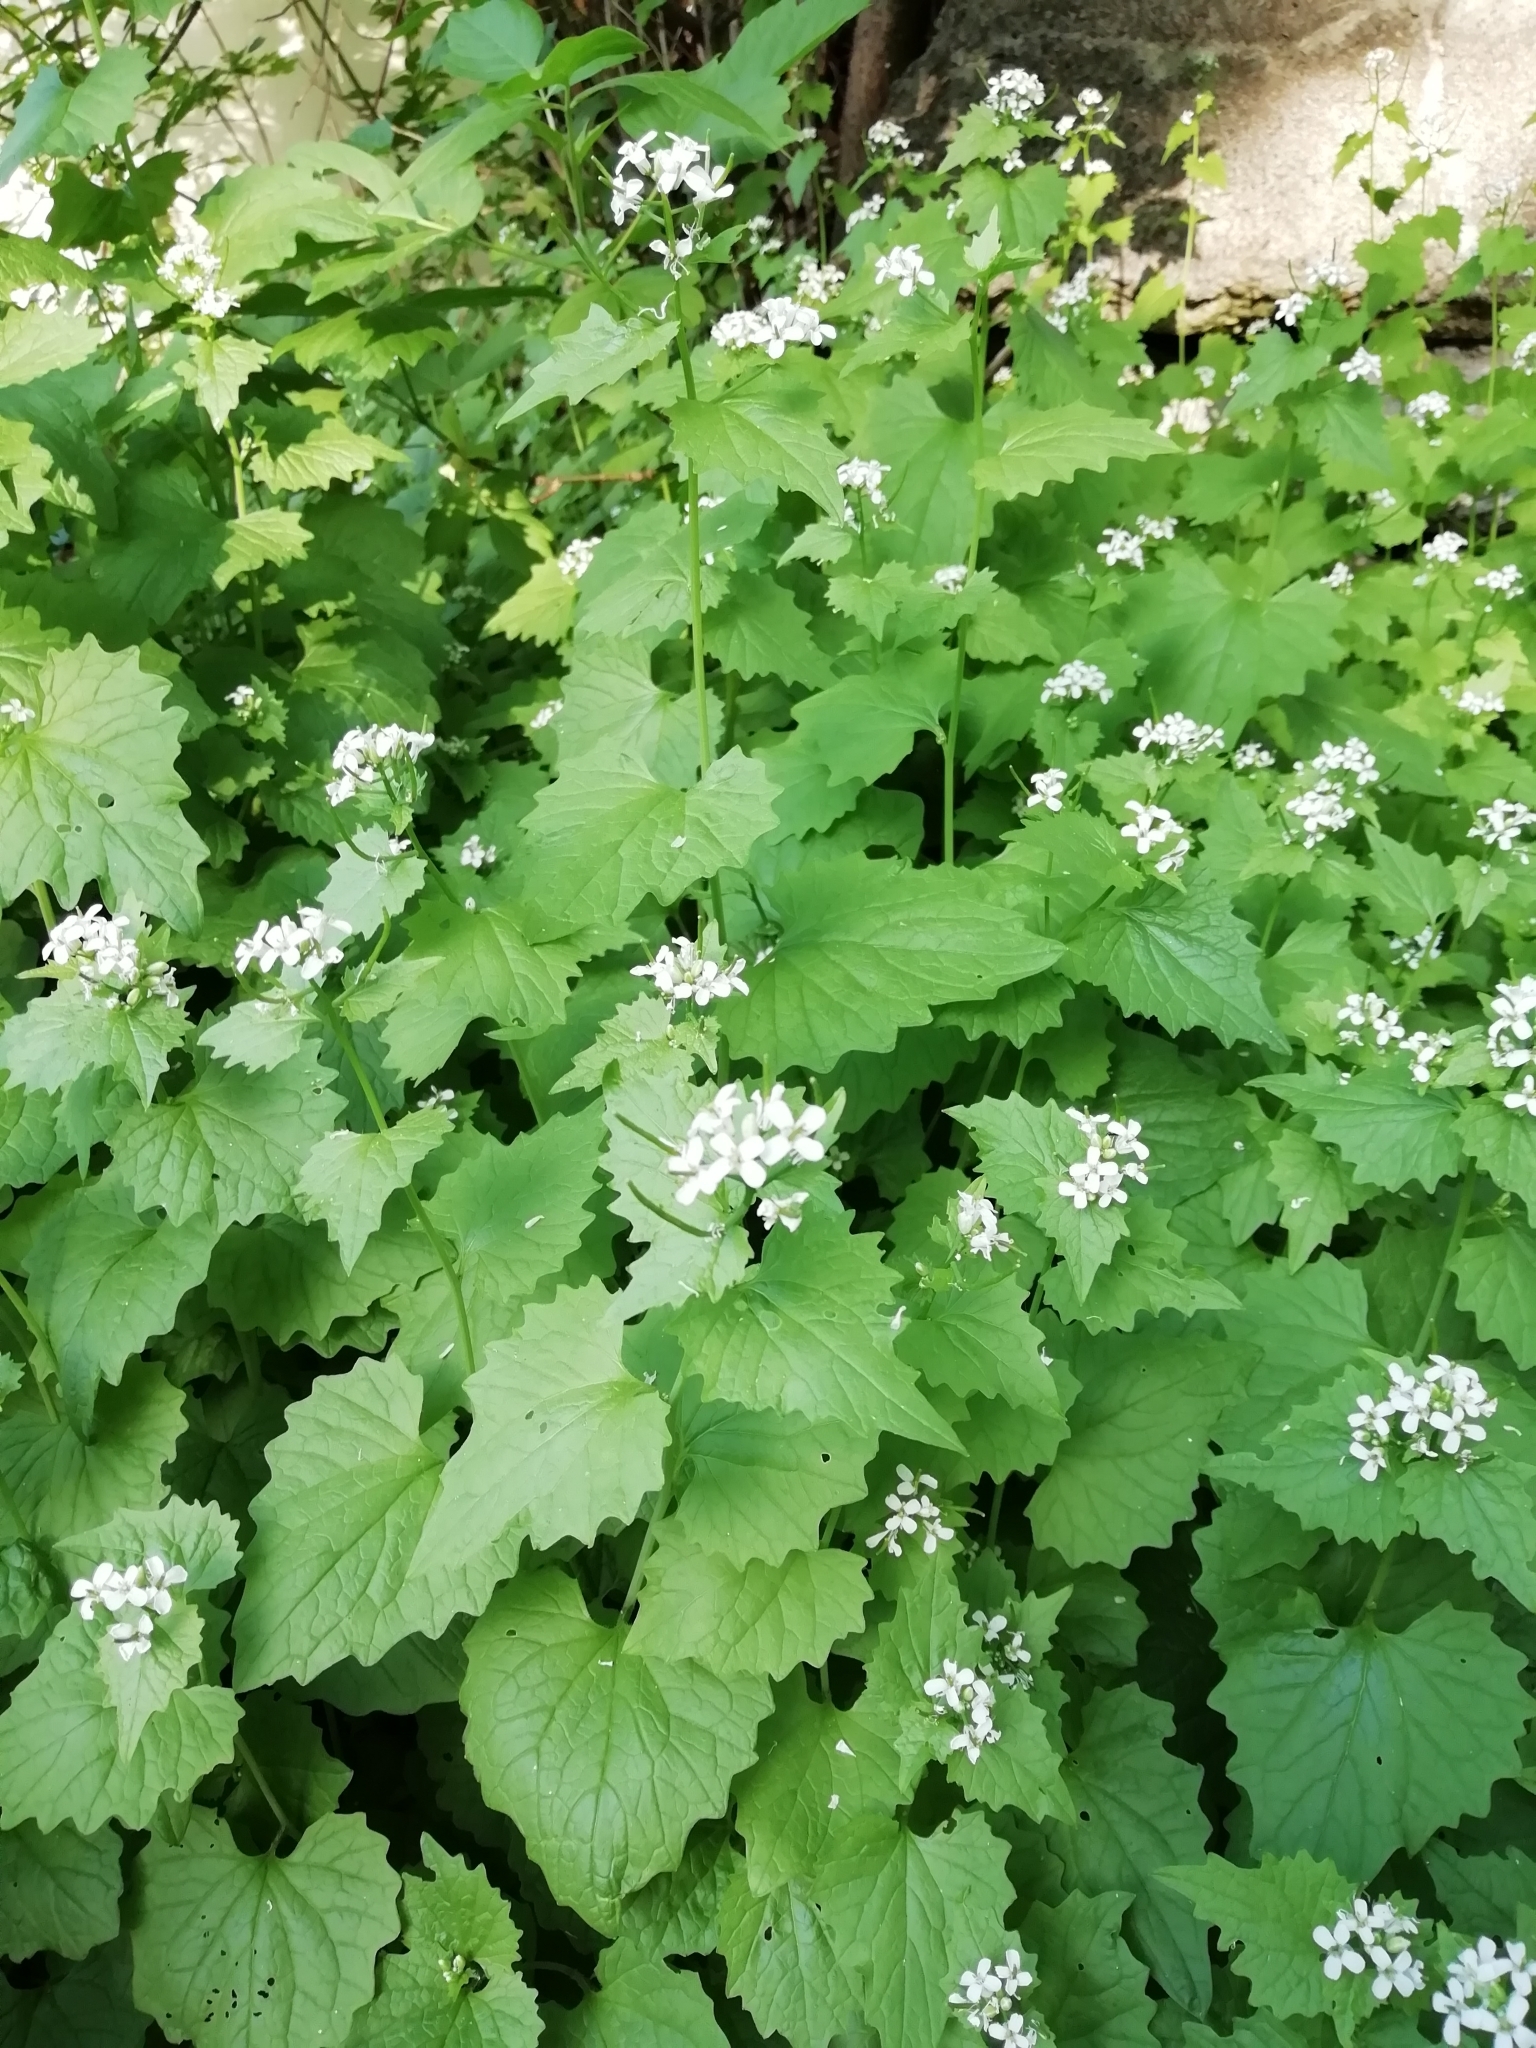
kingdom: Plantae
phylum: Tracheophyta
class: Magnoliopsida
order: Brassicales
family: Brassicaceae
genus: Alliaria
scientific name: Alliaria petiolata
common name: Garlic mustard
